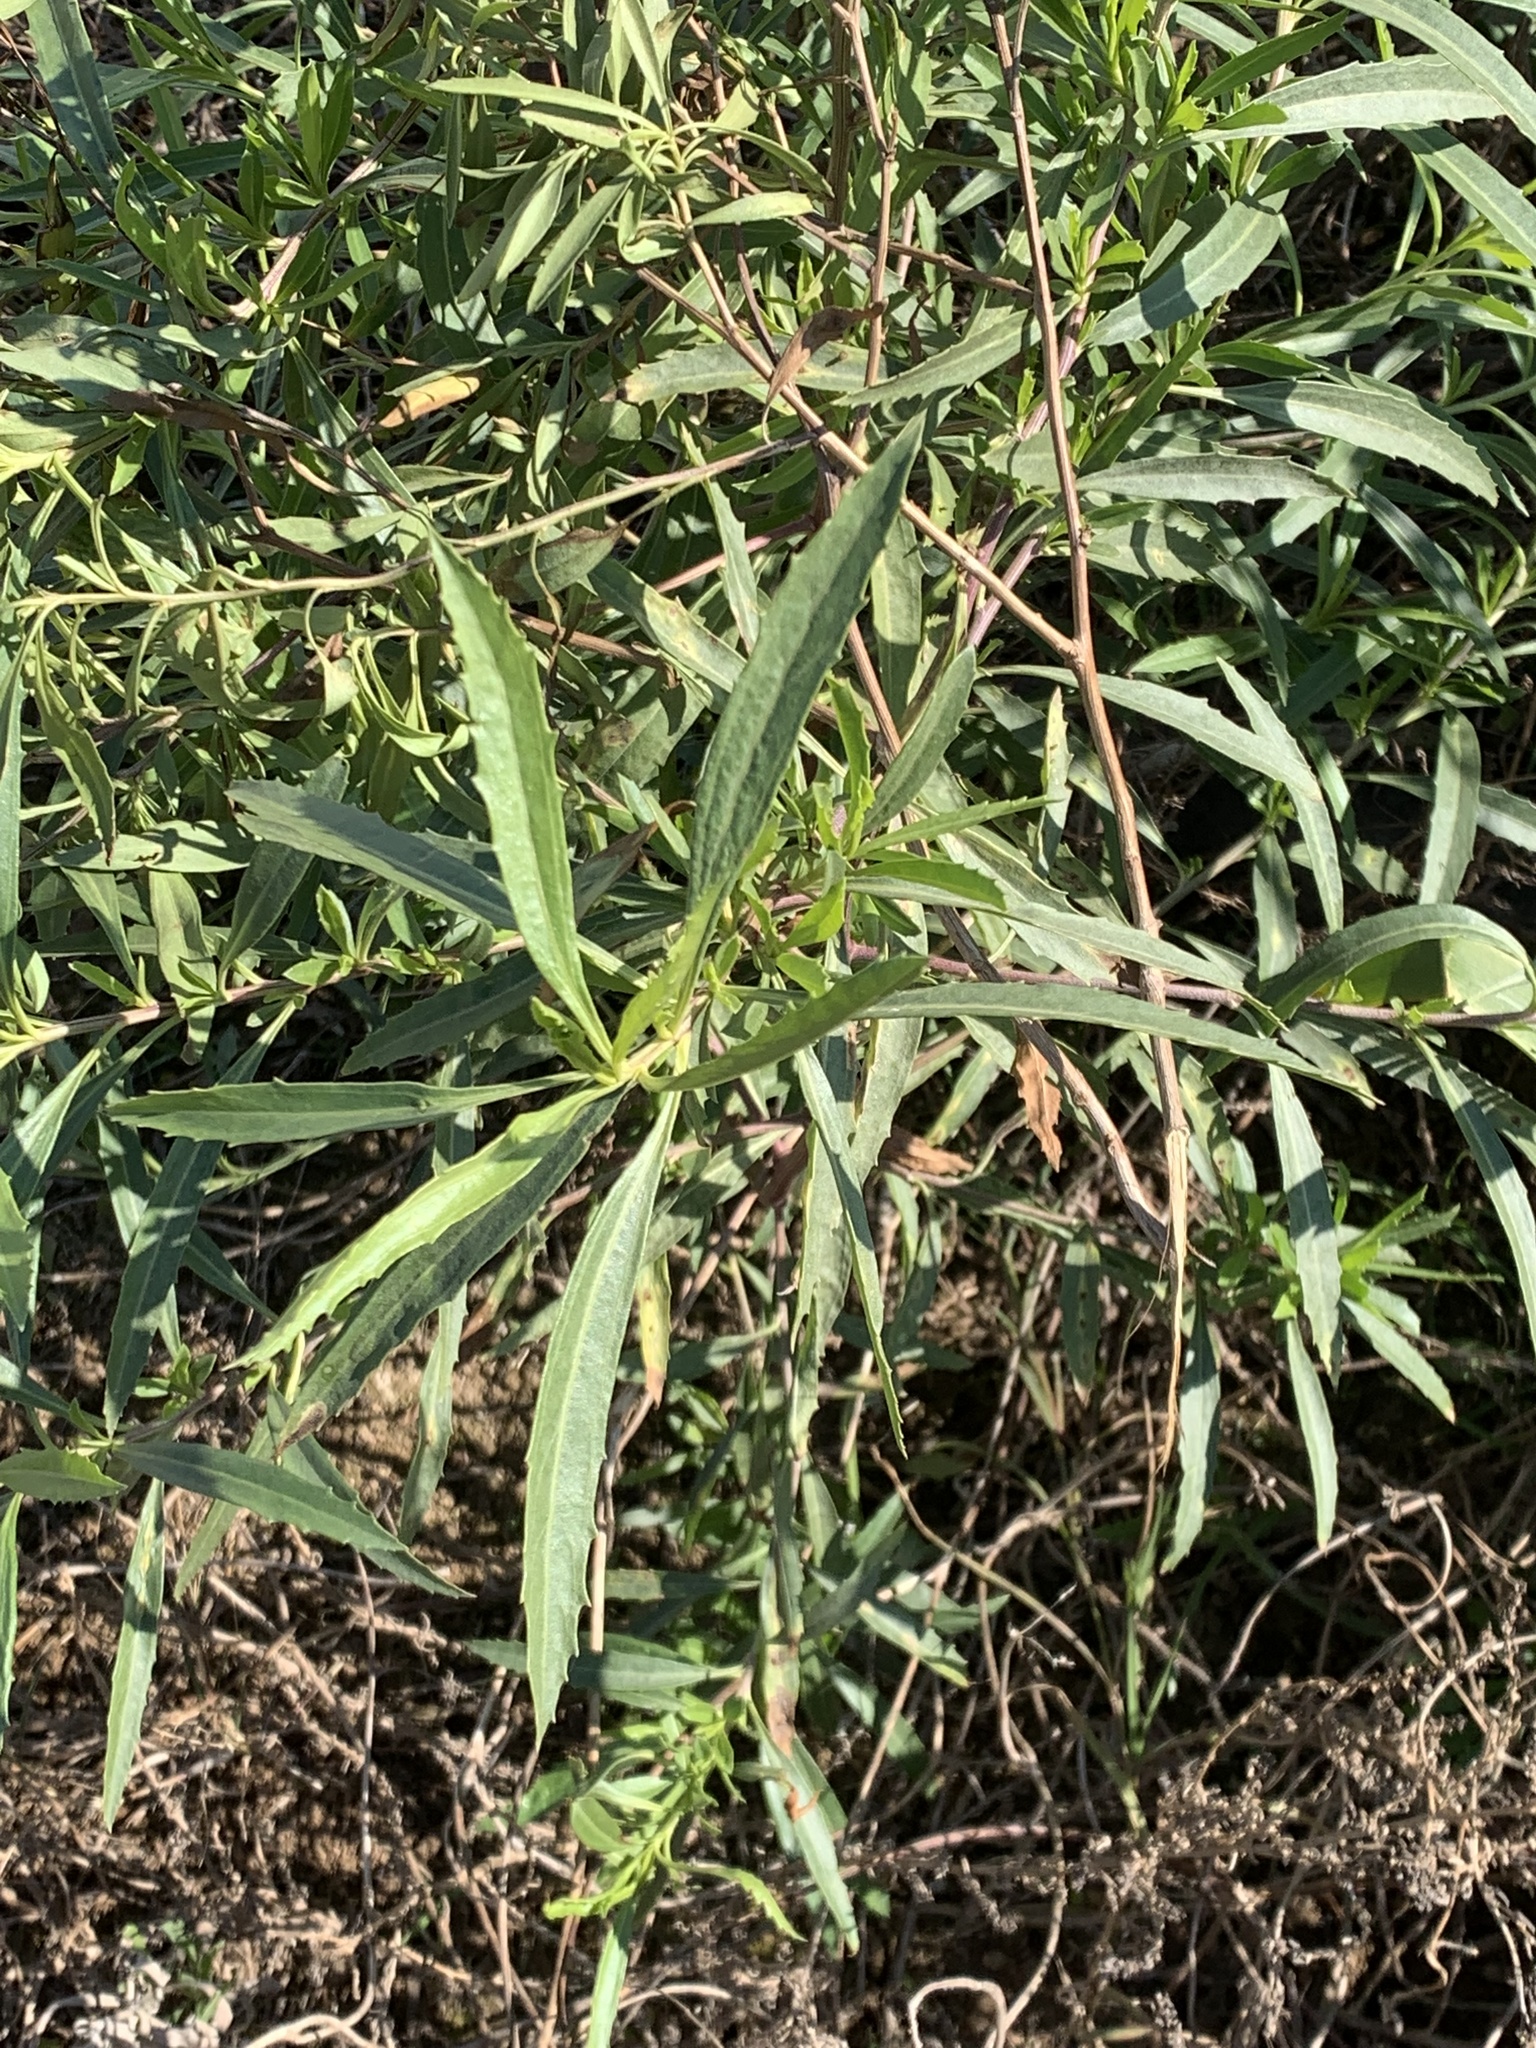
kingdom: Plantae
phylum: Tracheophyta
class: Magnoliopsida
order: Asterales
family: Asteraceae
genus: Baccharis
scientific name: Baccharis salicifolia
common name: Sticky baccharis
